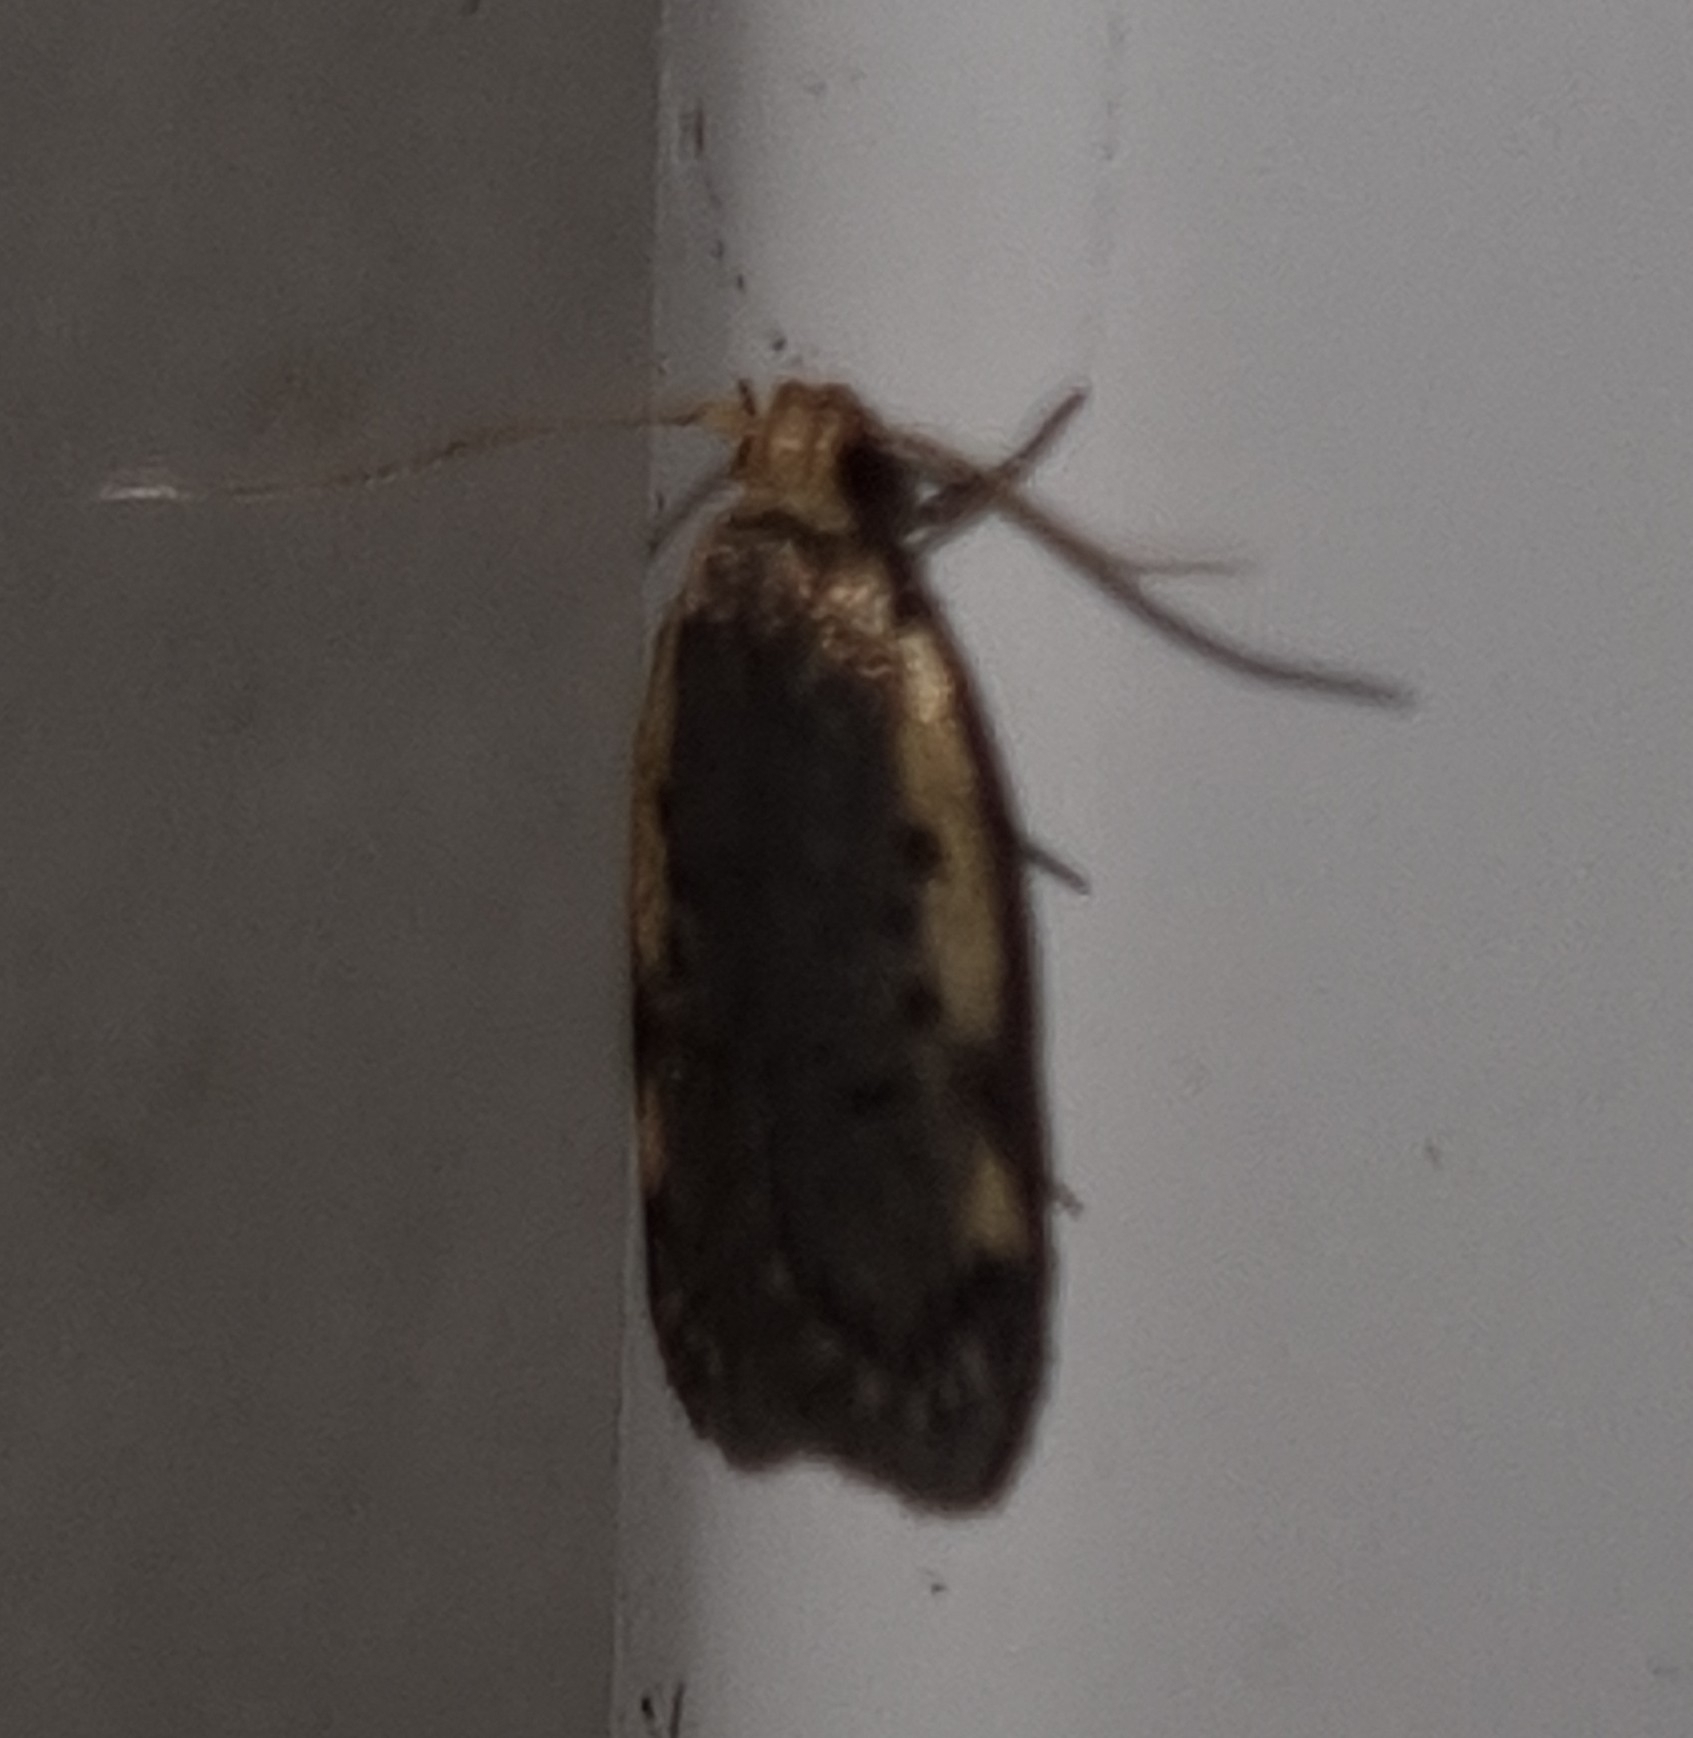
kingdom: Animalia
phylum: Arthropoda
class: Insecta
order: Lepidoptera
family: Oecophoridae
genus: Hoplostega
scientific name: Hoplostega ochroma
